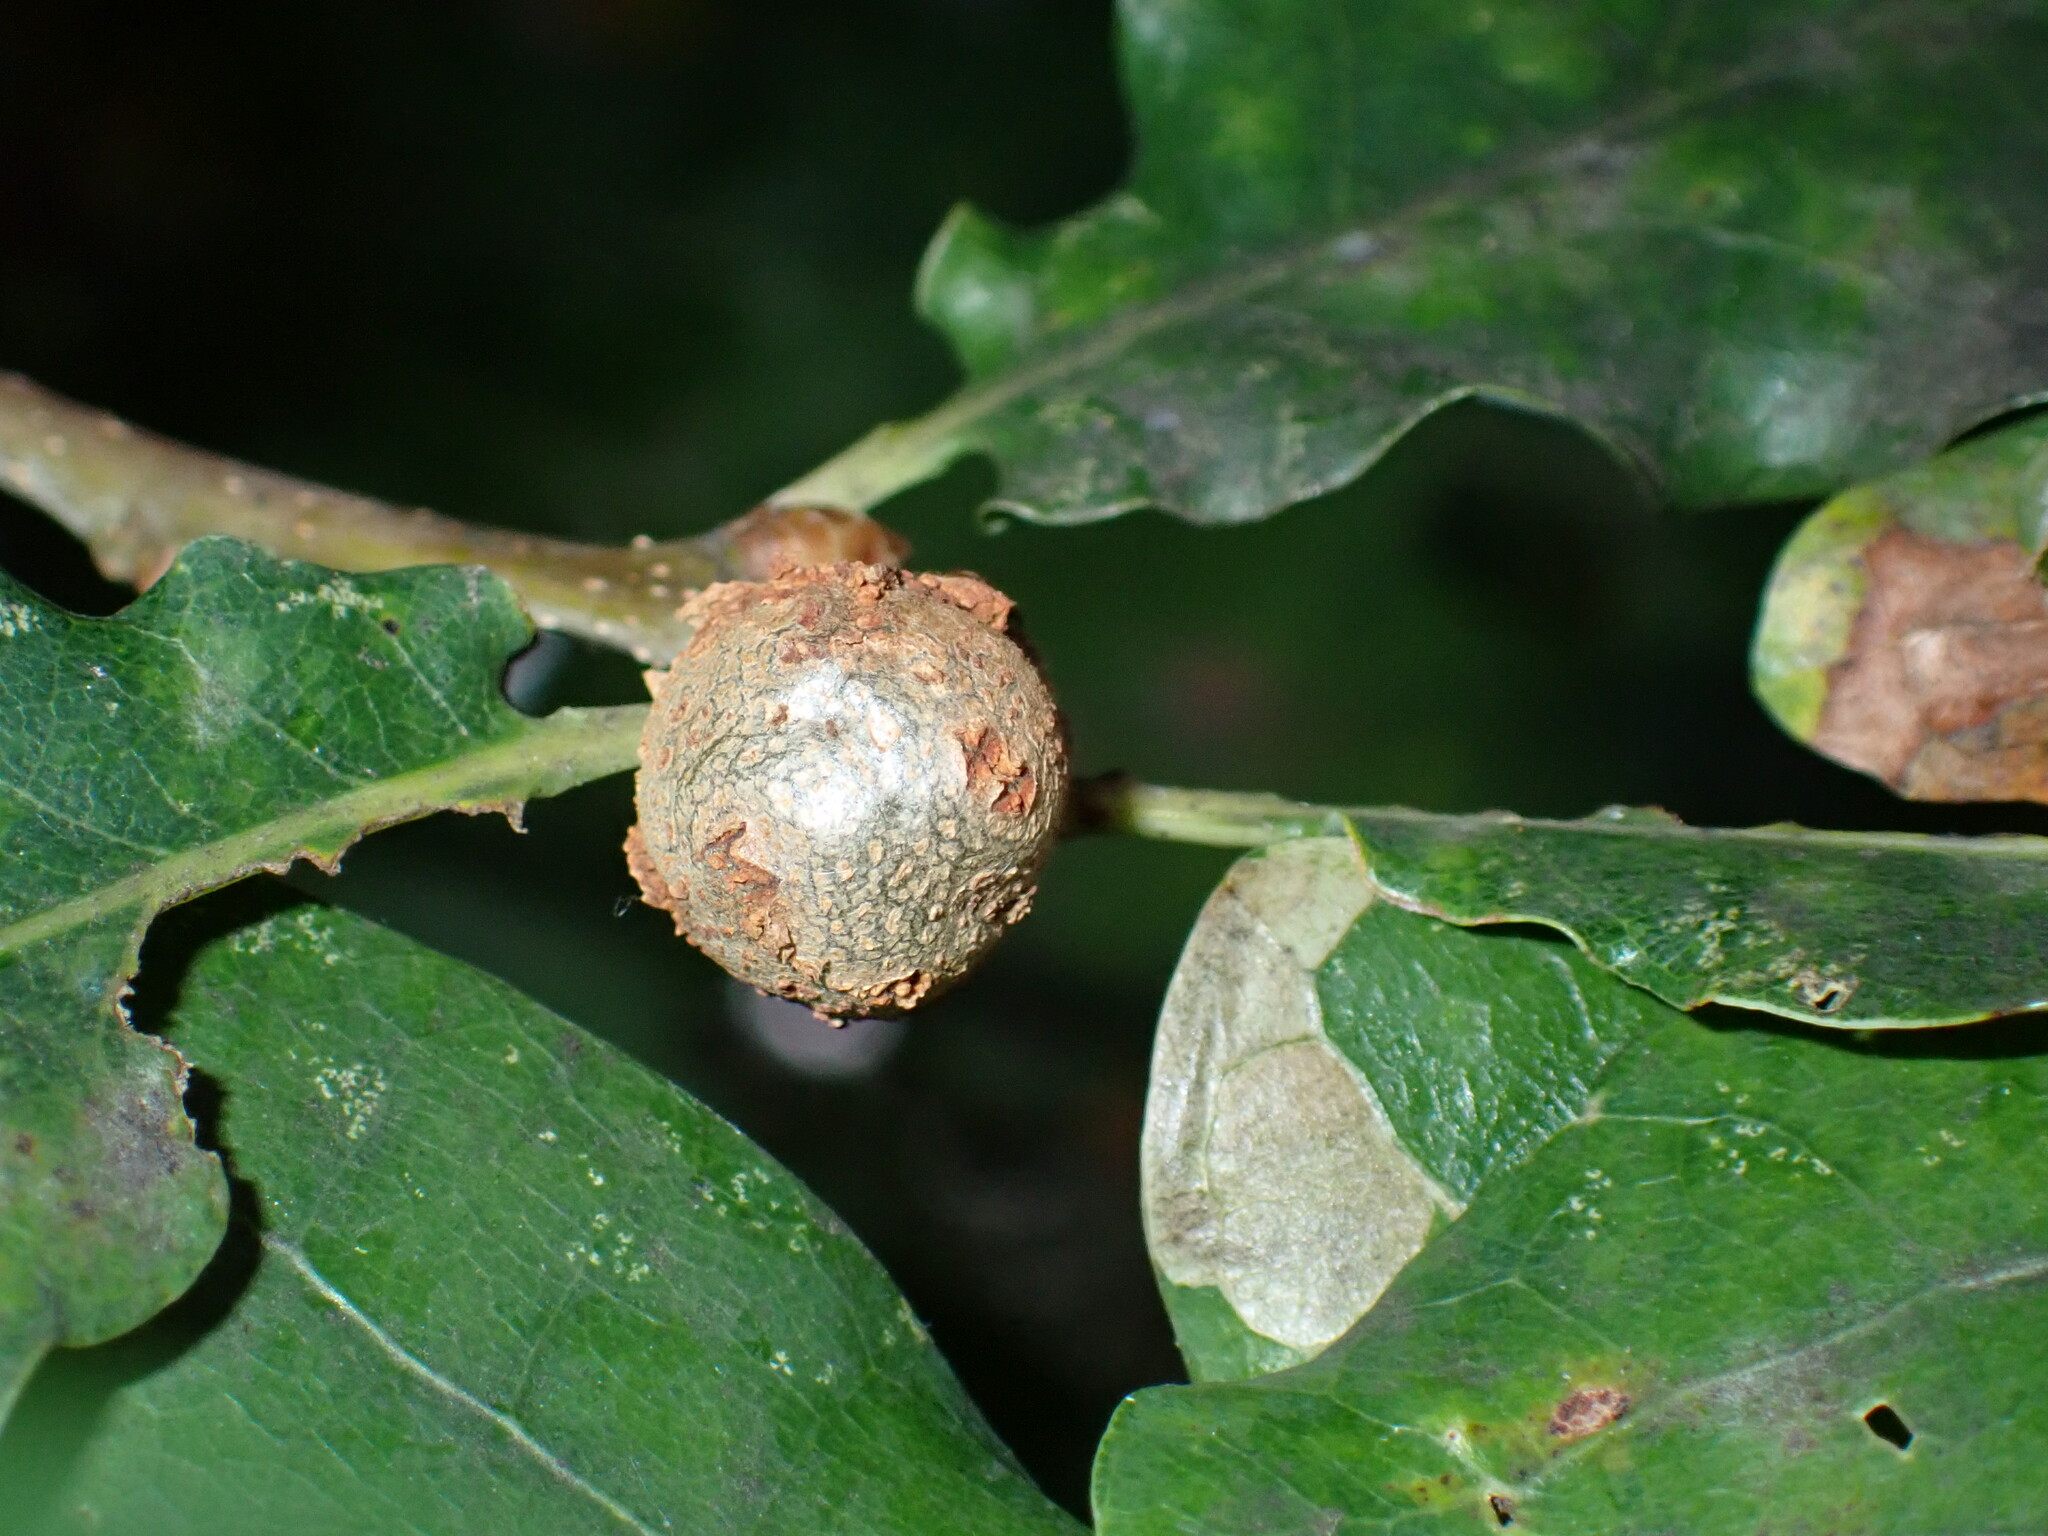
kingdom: Animalia
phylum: Arthropoda
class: Insecta
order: Hymenoptera
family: Cynipidae
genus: Andricus
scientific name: Andricus lignicolus
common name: Cola-nut gall
